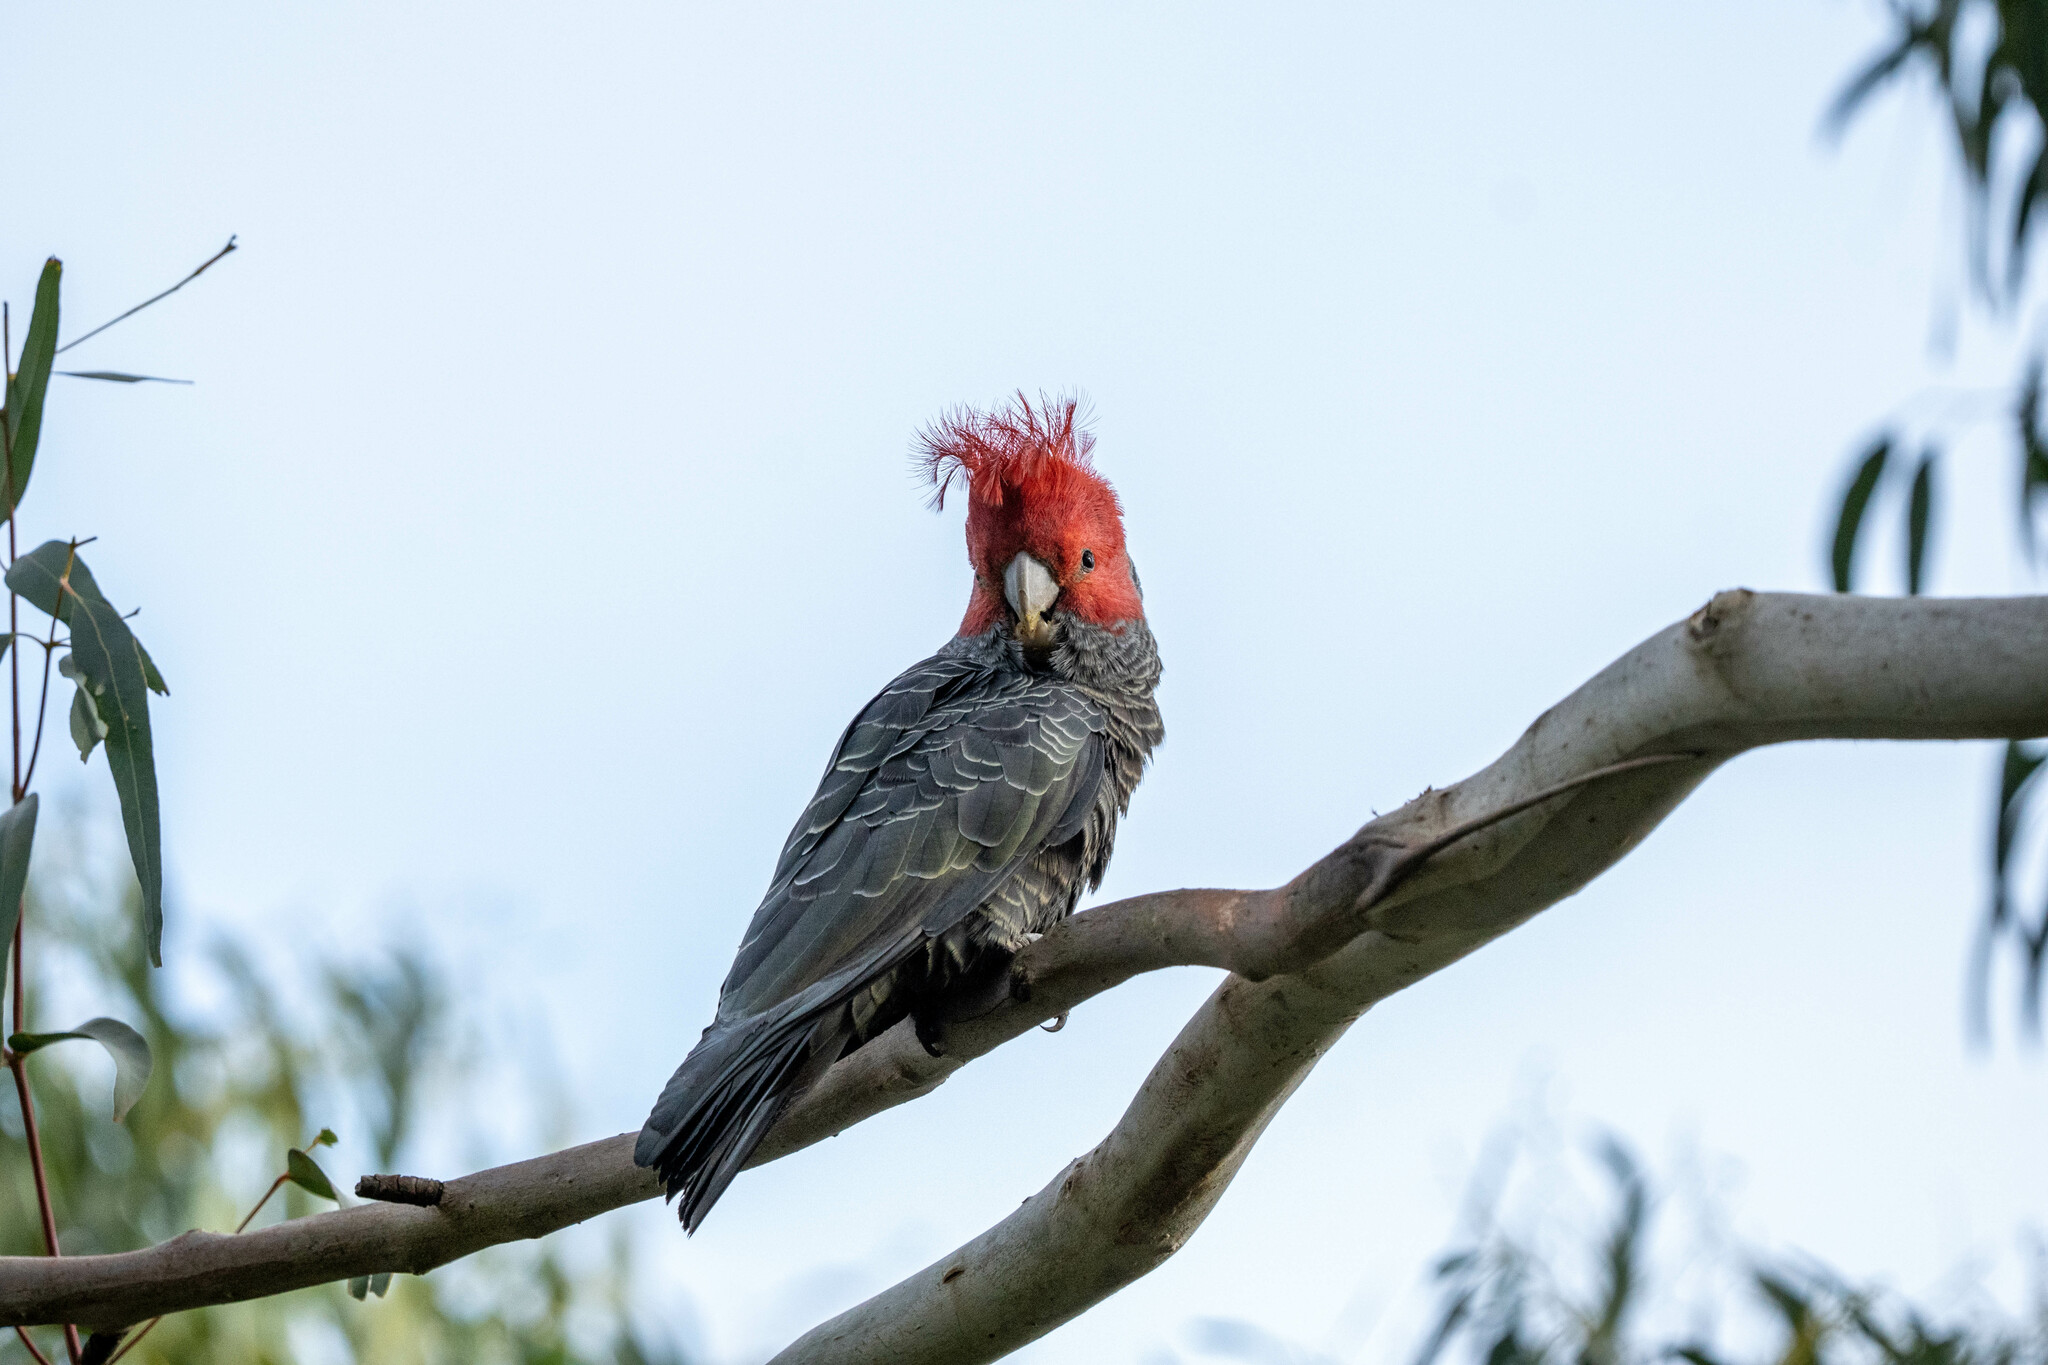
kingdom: Animalia
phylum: Chordata
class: Aves
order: Psittaciformes
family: Psittacidae
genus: Callocephalon
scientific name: Callocephalon fimbriatum
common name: Gang-gang cockatoo
